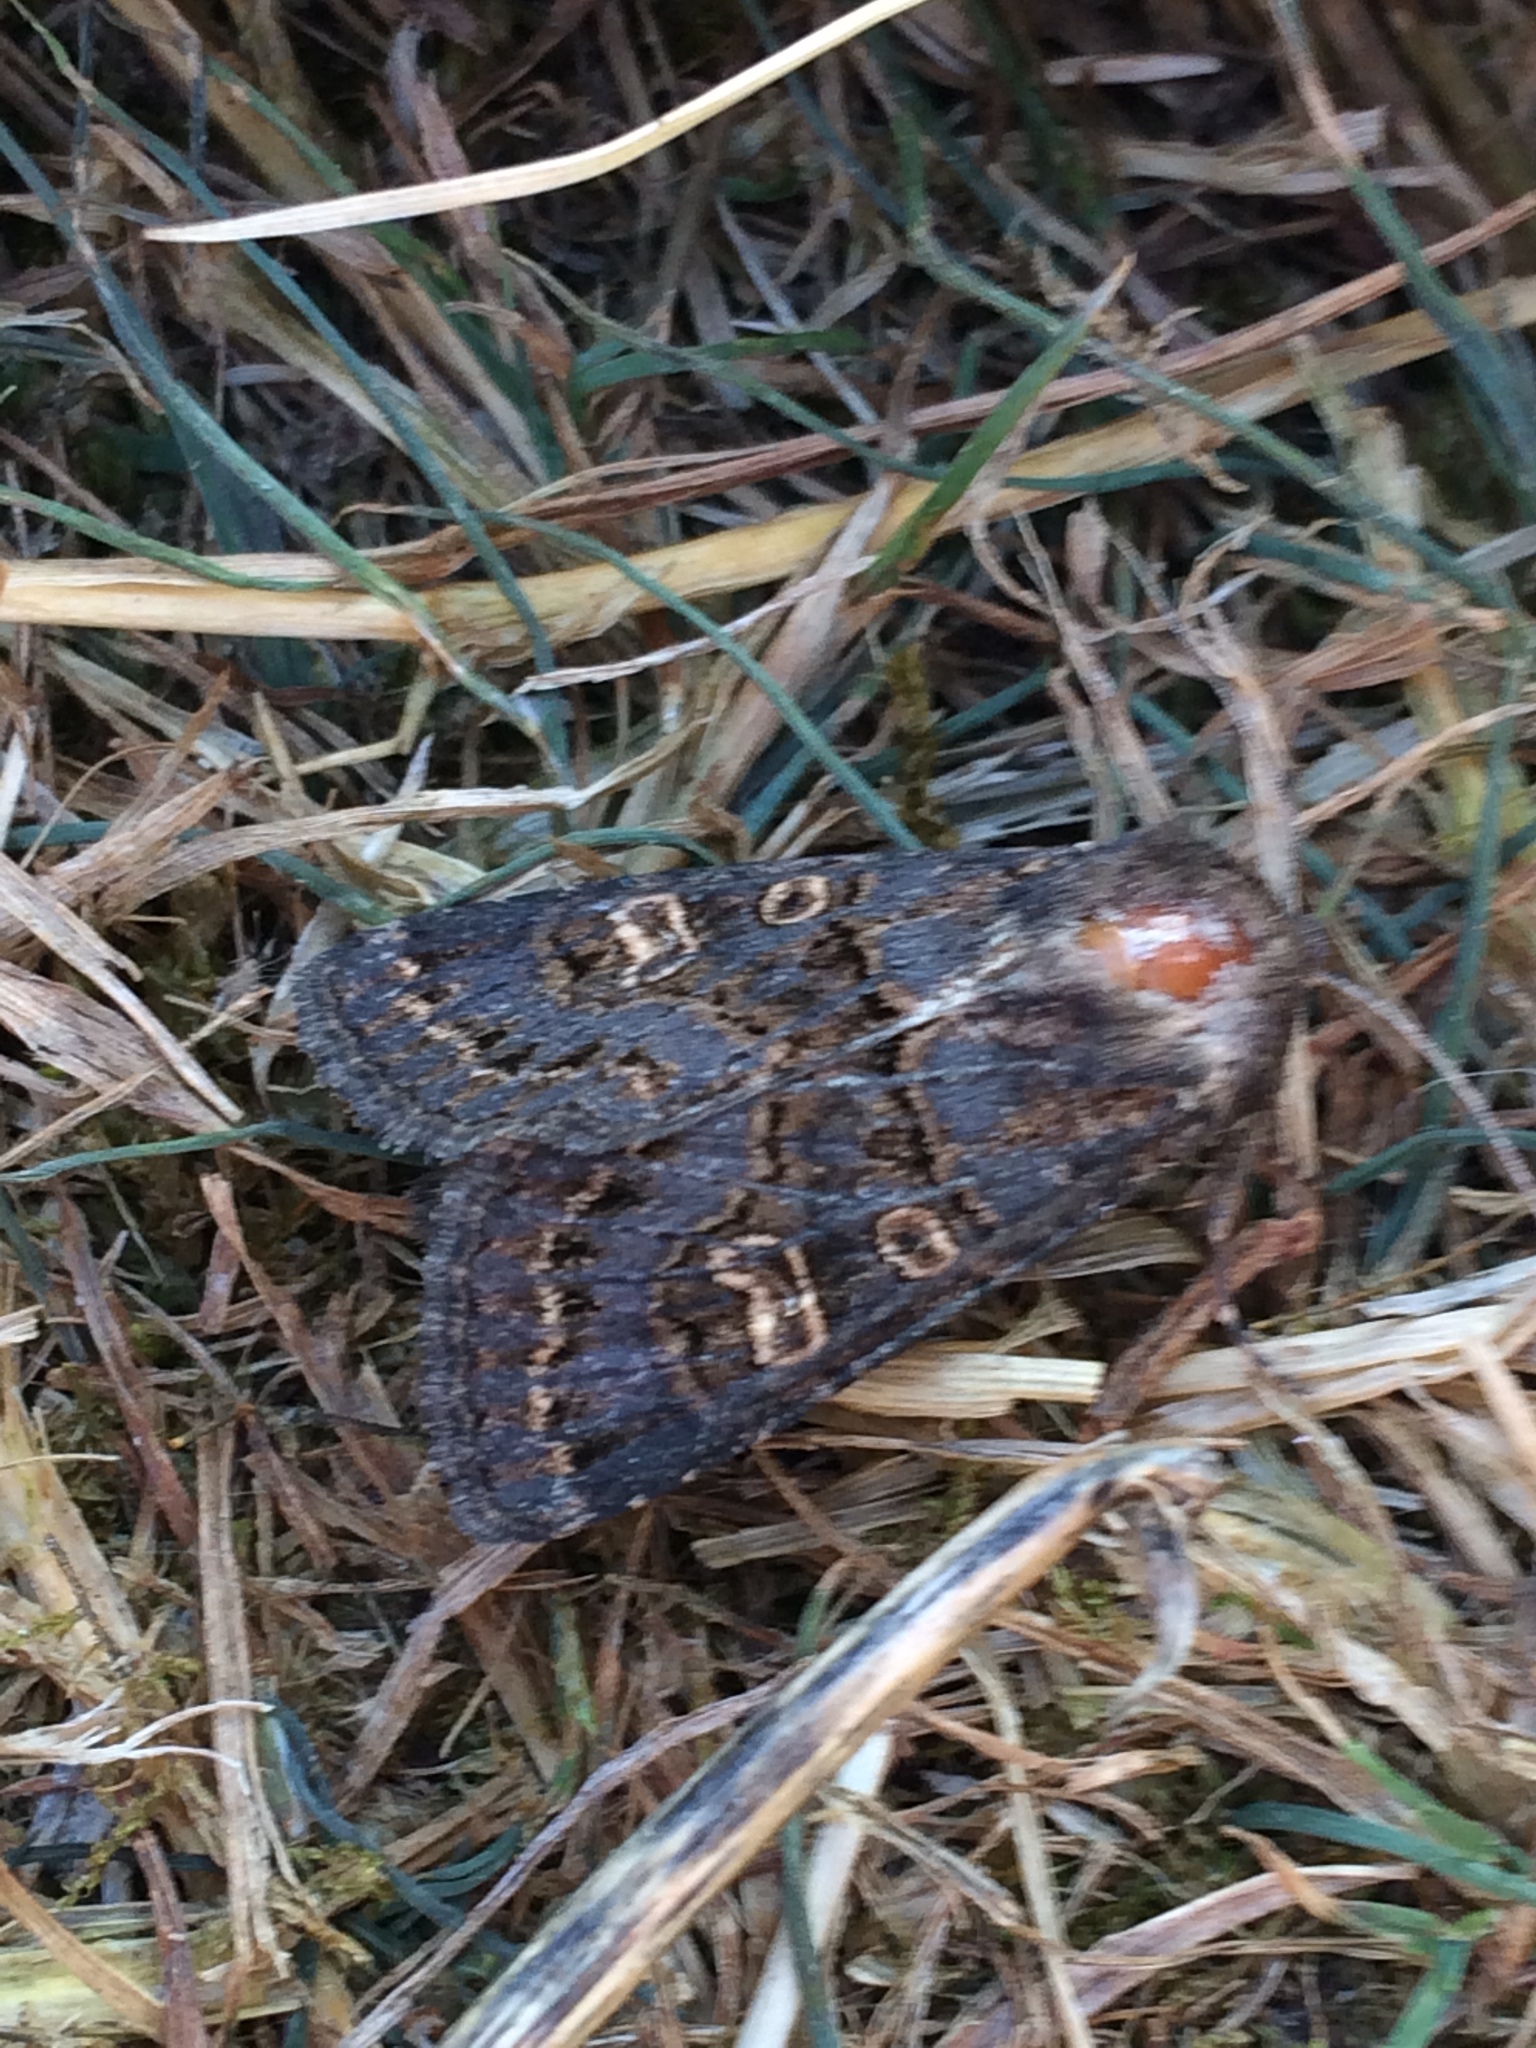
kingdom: Animalia
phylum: Arthropoda
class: Insecta
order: Lepidoptera
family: Noctuidae
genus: Tholera
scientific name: Tholera cespitis
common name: Hedge rustic
